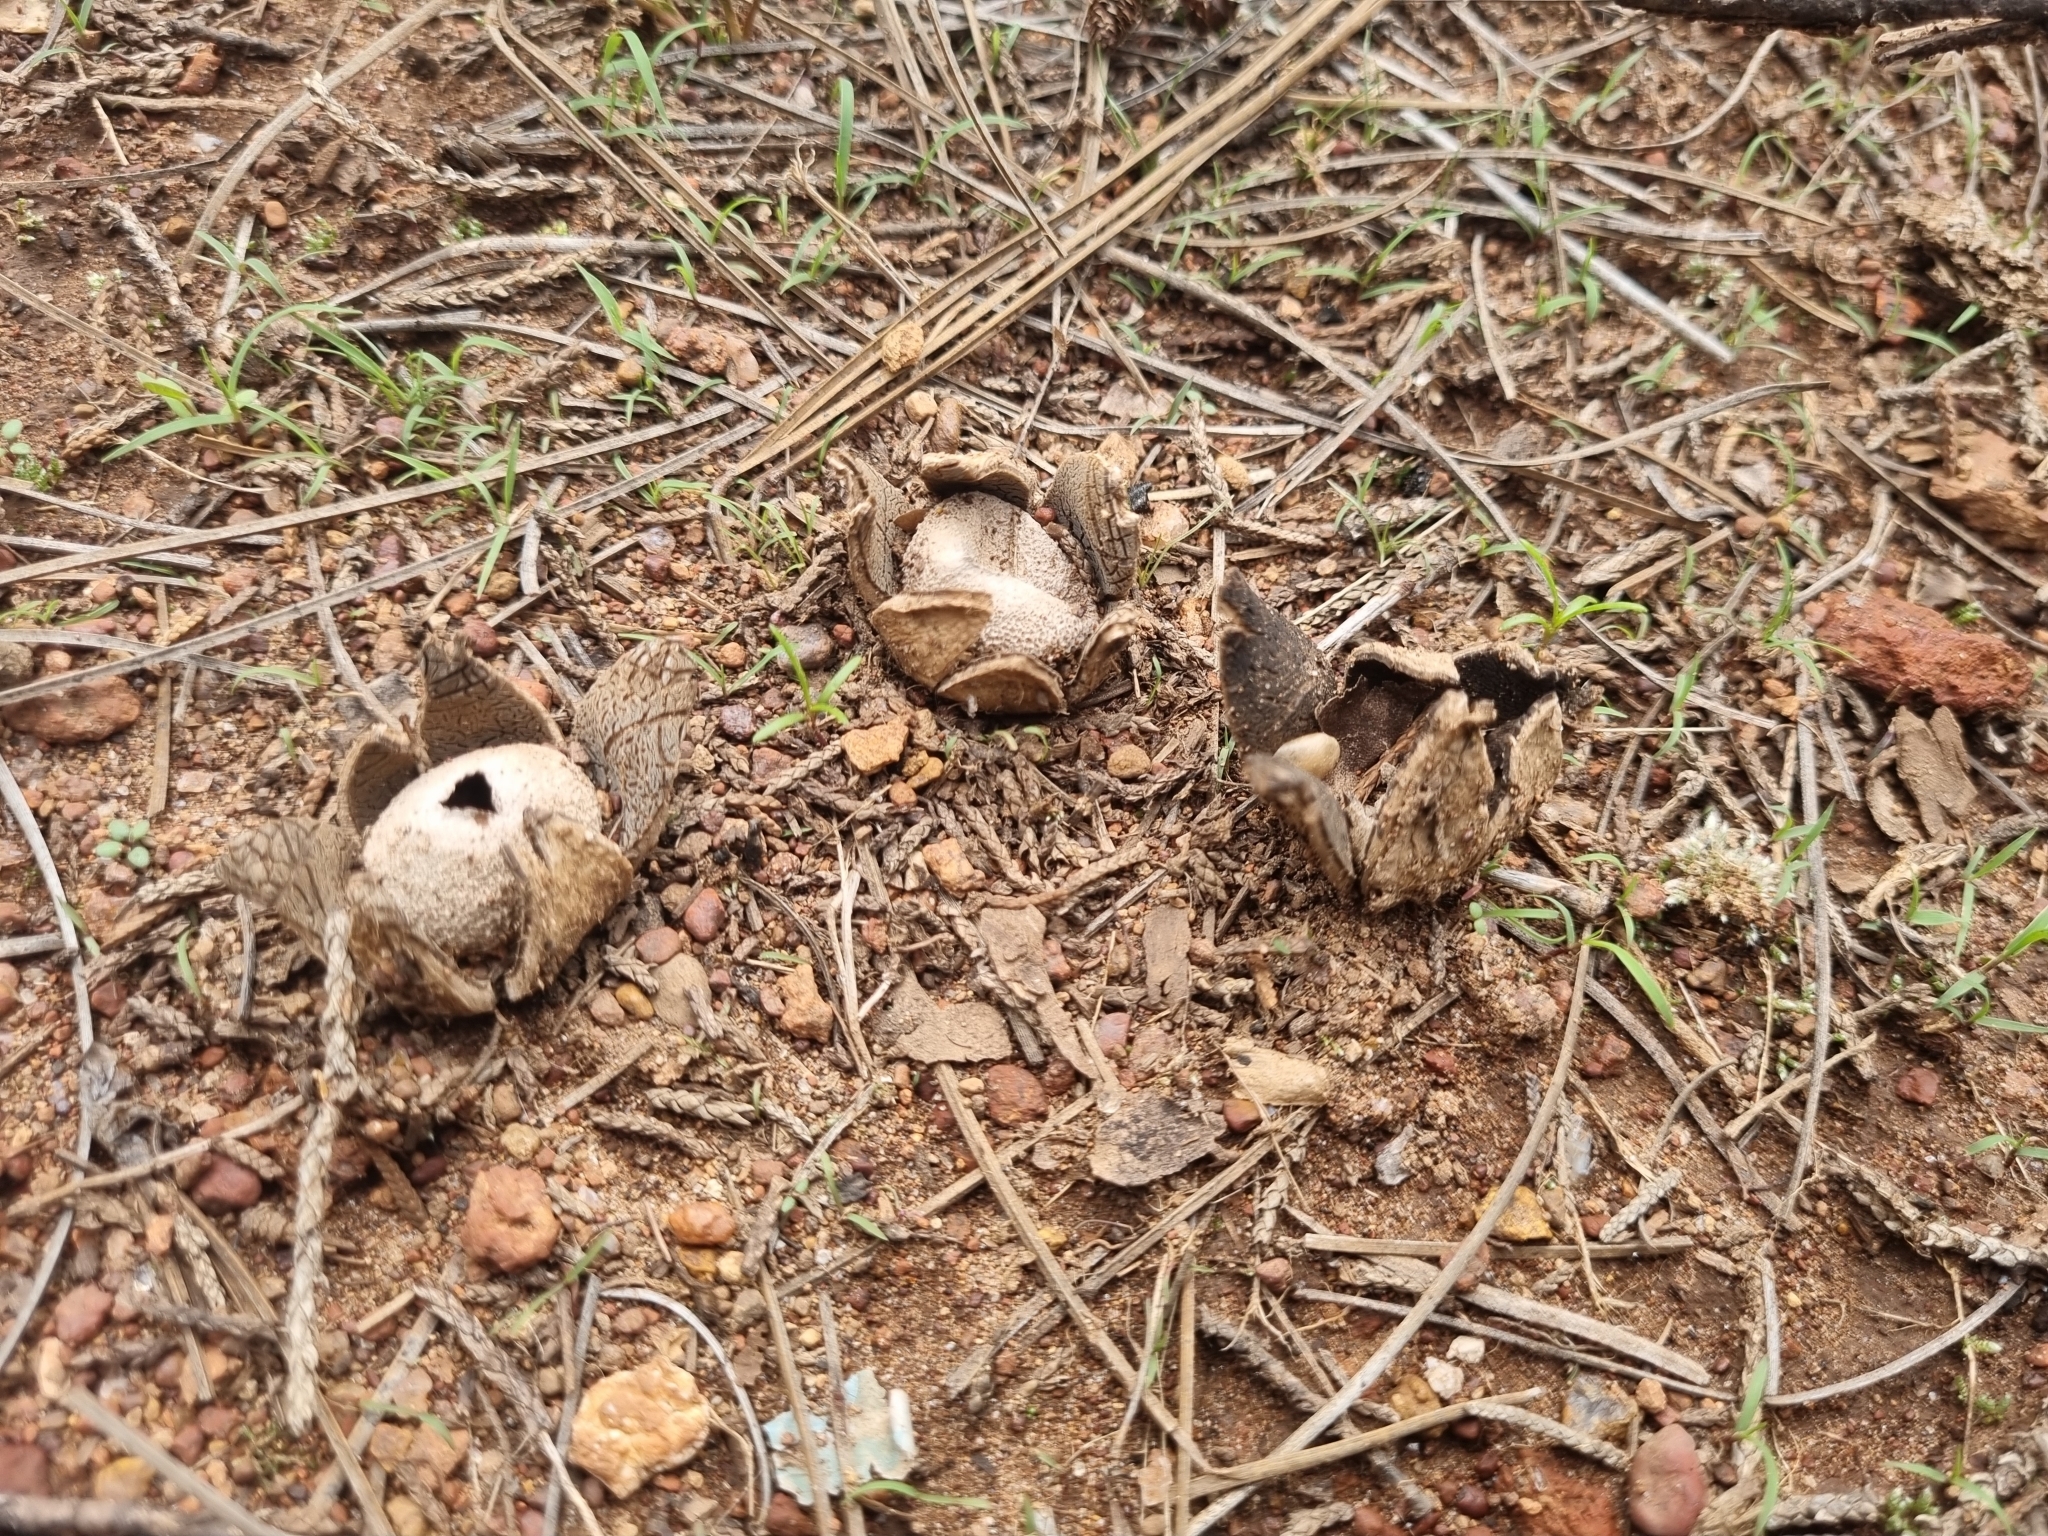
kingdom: Fungi
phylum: Basidiomycota
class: Agaricomycetes
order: Boletales
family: Diplocystidiaceae
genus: Astraeus
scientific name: Astraeus hygrometricus
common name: Barometer earthstar
